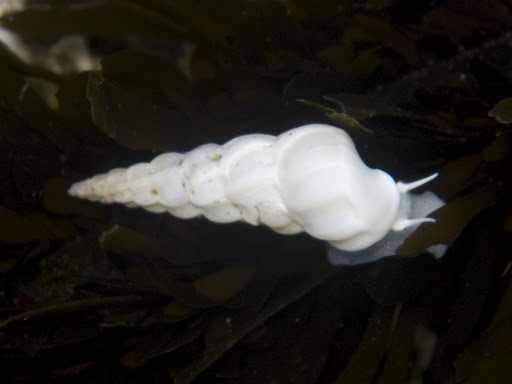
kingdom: Animalia
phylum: Mollusca
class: Gastropoda
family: Epitoniidae
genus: Opalia
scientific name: Opalia wroblewskyi
